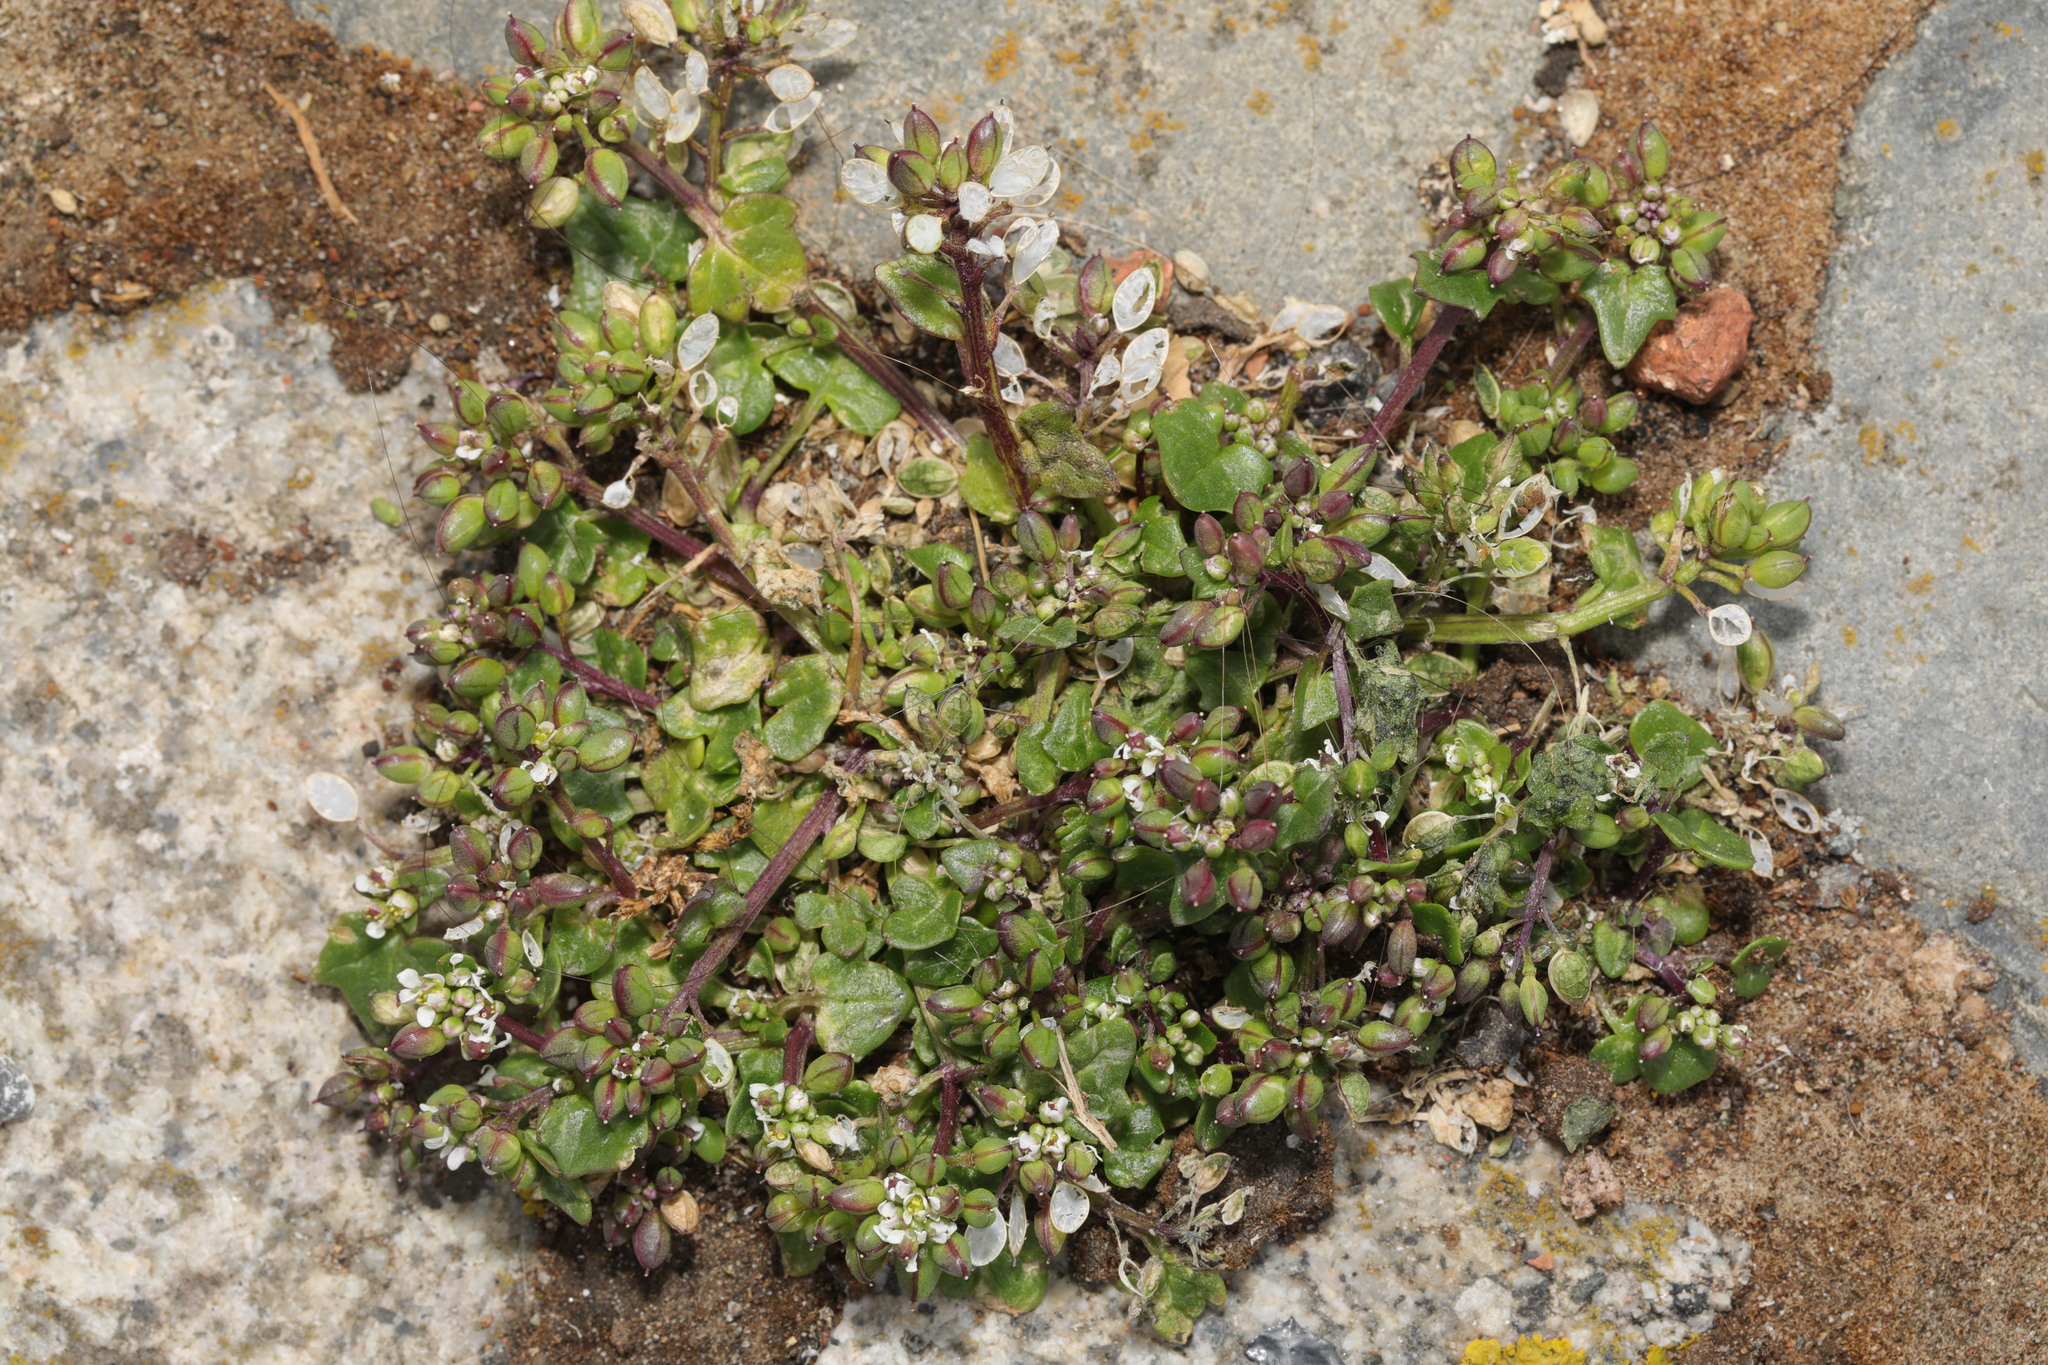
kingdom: Plantae
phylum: Tracheophyta
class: Magnoliopsida
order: Brassicales
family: Brassicaceae
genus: Cochlearia
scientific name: Cochlearia danica
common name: Early scurvygrass
